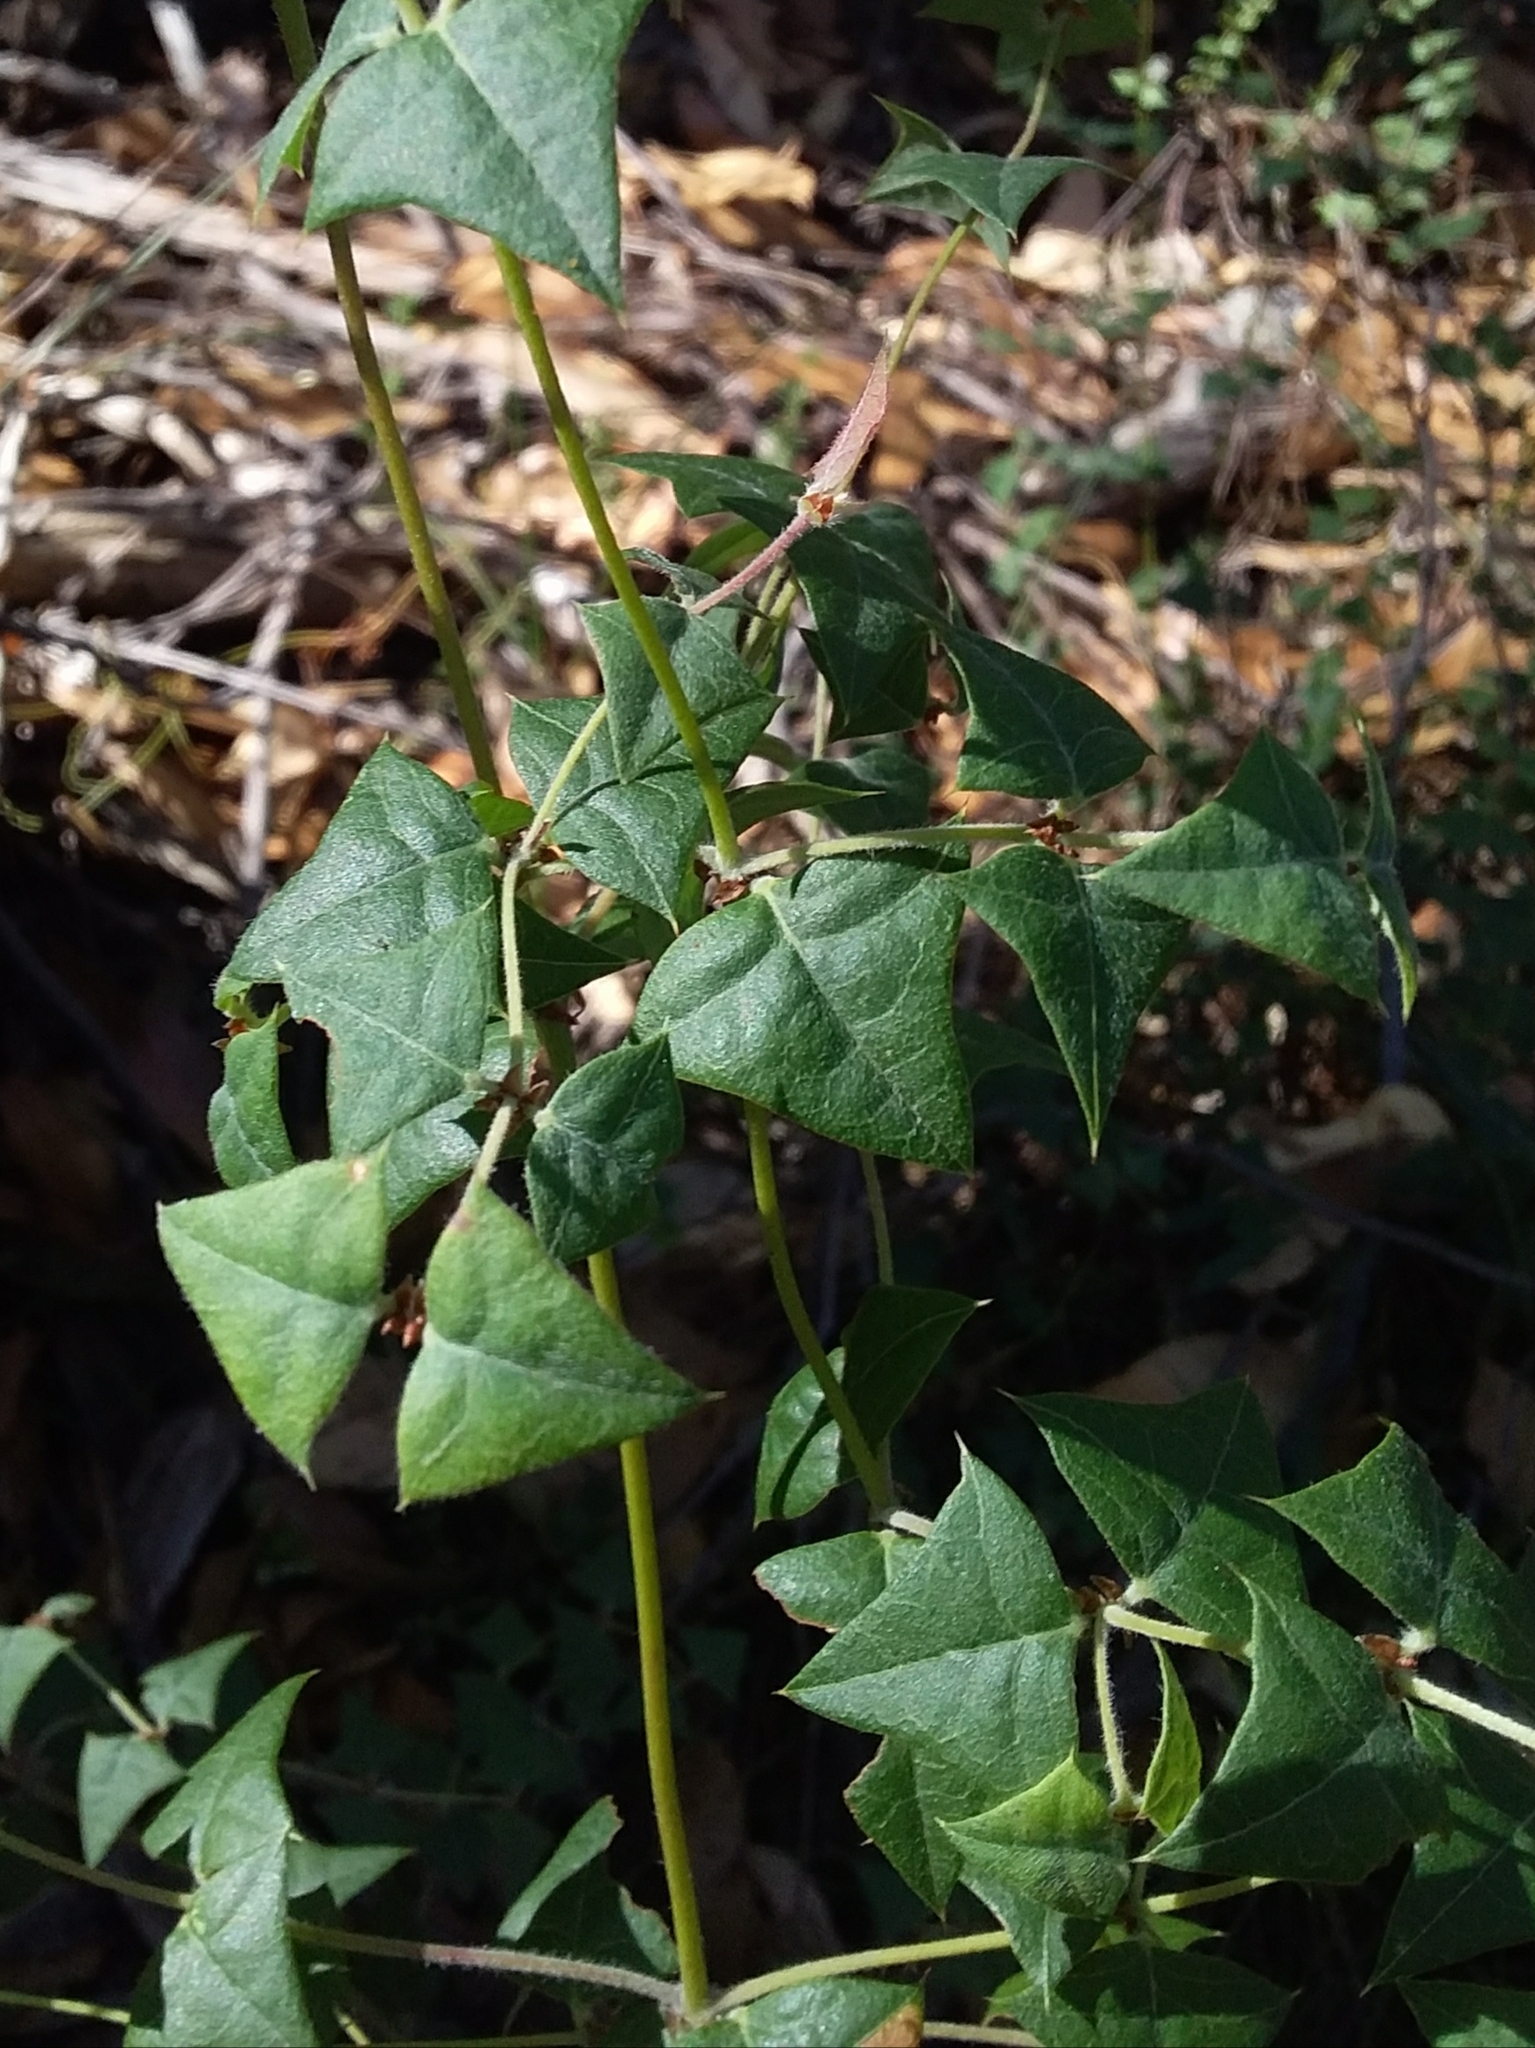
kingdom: Plantae
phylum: Tracheophyta
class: Magnoliopsida
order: Fabales
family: Fabaceae
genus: Platylobium
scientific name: Platylobium obtusangulum
